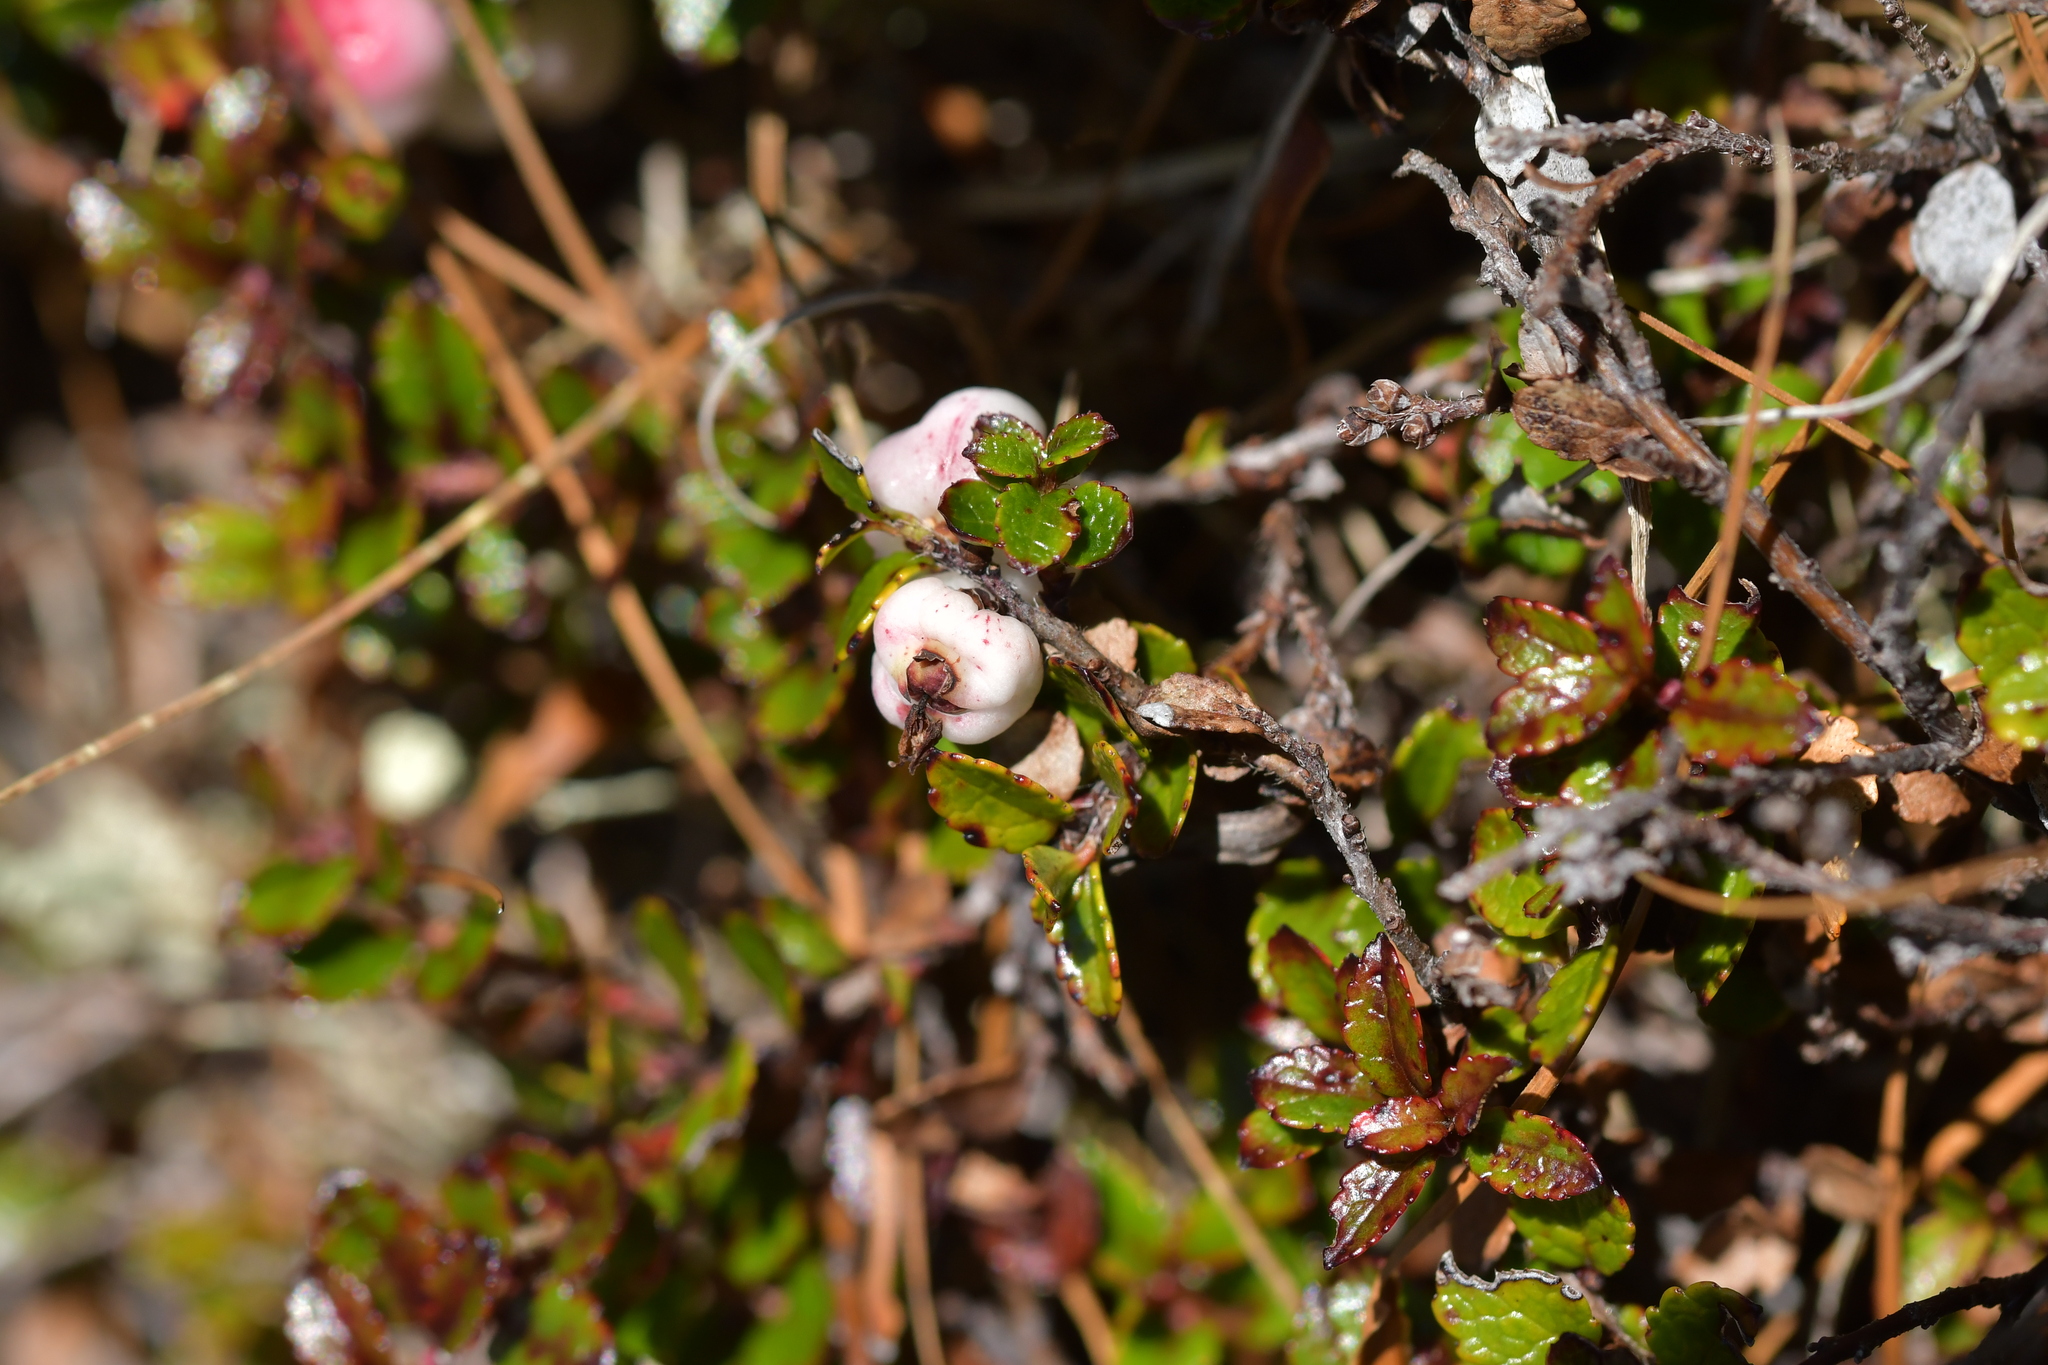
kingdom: Plantae
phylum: Tracheophyta
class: Magnoliopsida
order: Ericales
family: Ericaceae
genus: Gaultheria
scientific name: Gaultheria depressa
